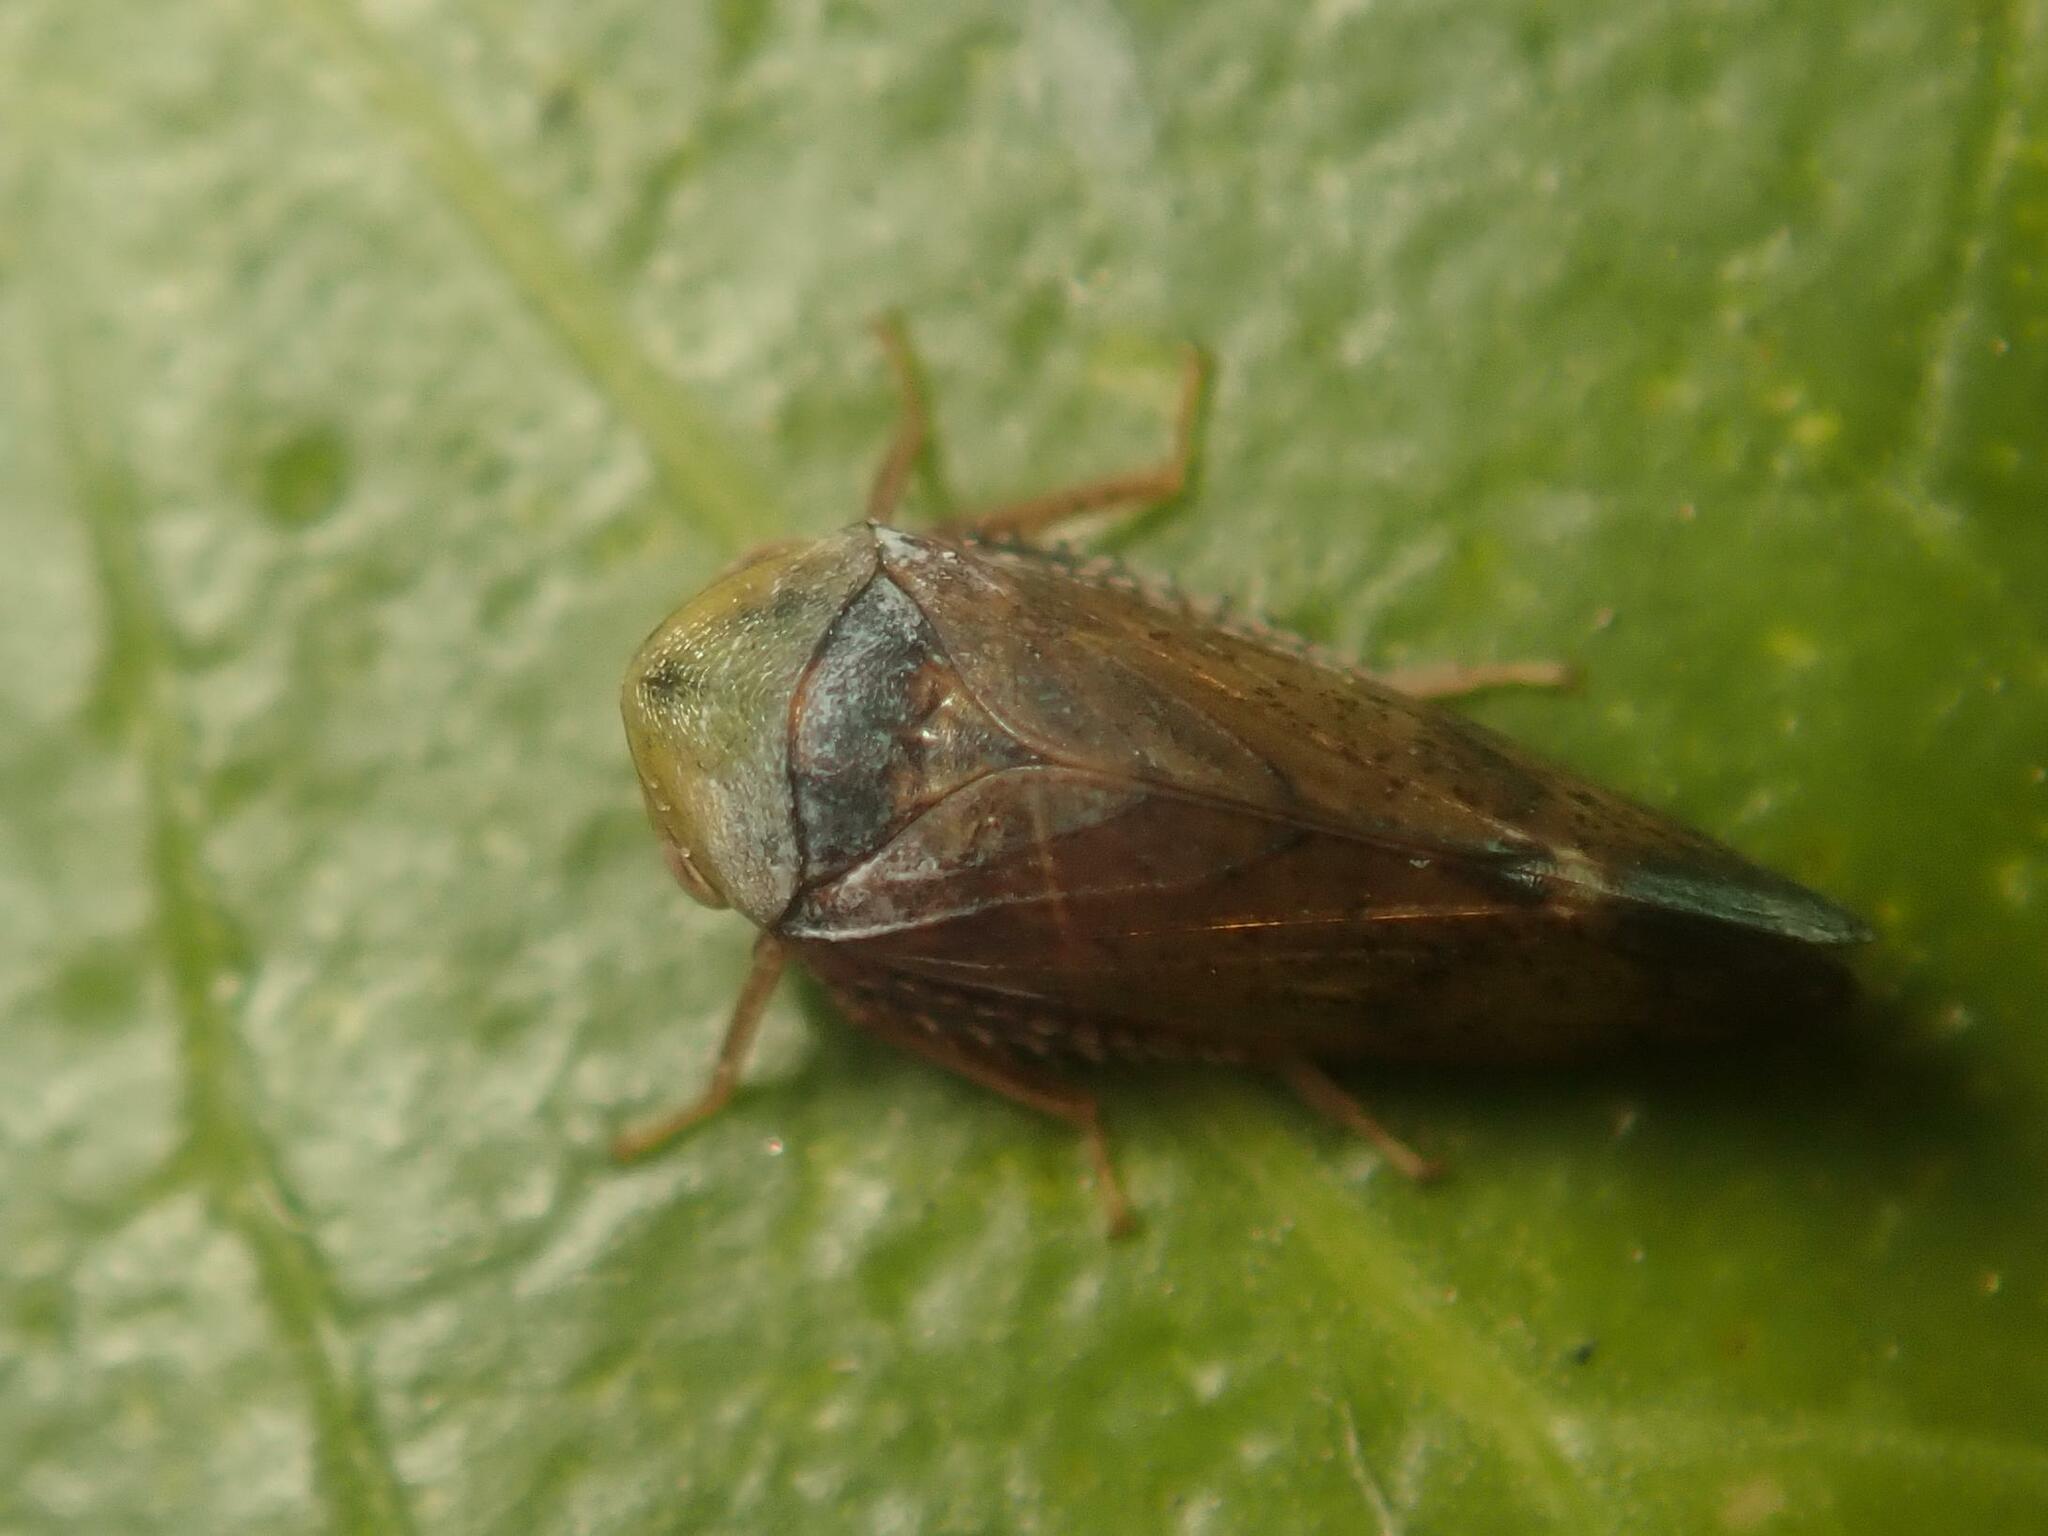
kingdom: Animalia
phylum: Arthropoda
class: Insecta
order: Hemiptera
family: Cicadellidae
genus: Pediopsis
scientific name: Pediopsis tiliae
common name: Leafhopper
